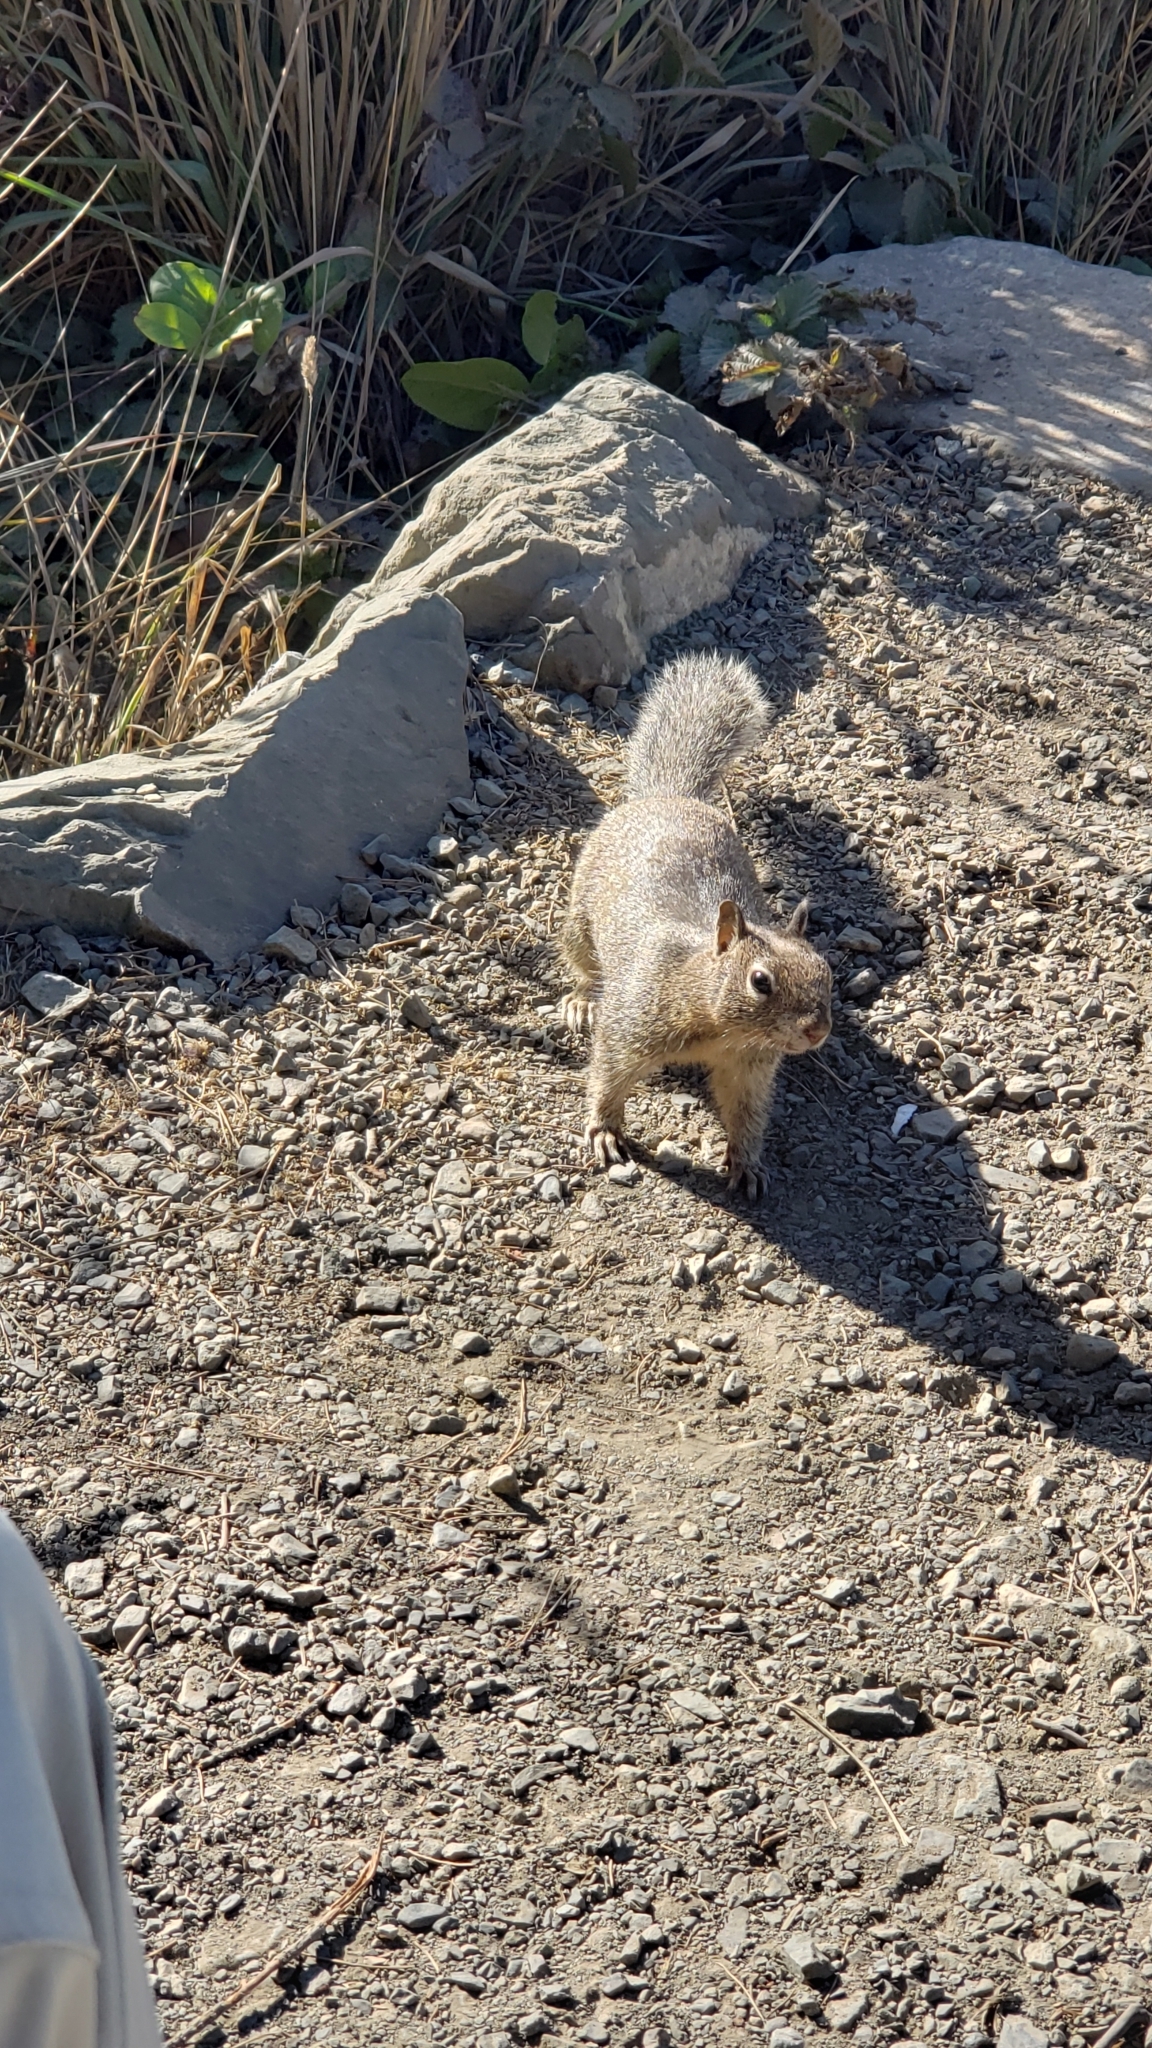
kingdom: Animalia
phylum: Chordata
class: Mammalia
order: Rodentia
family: Sciuridae
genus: Otospermophilus
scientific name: Otospermophilus beecheyi
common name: California ground squirrel
